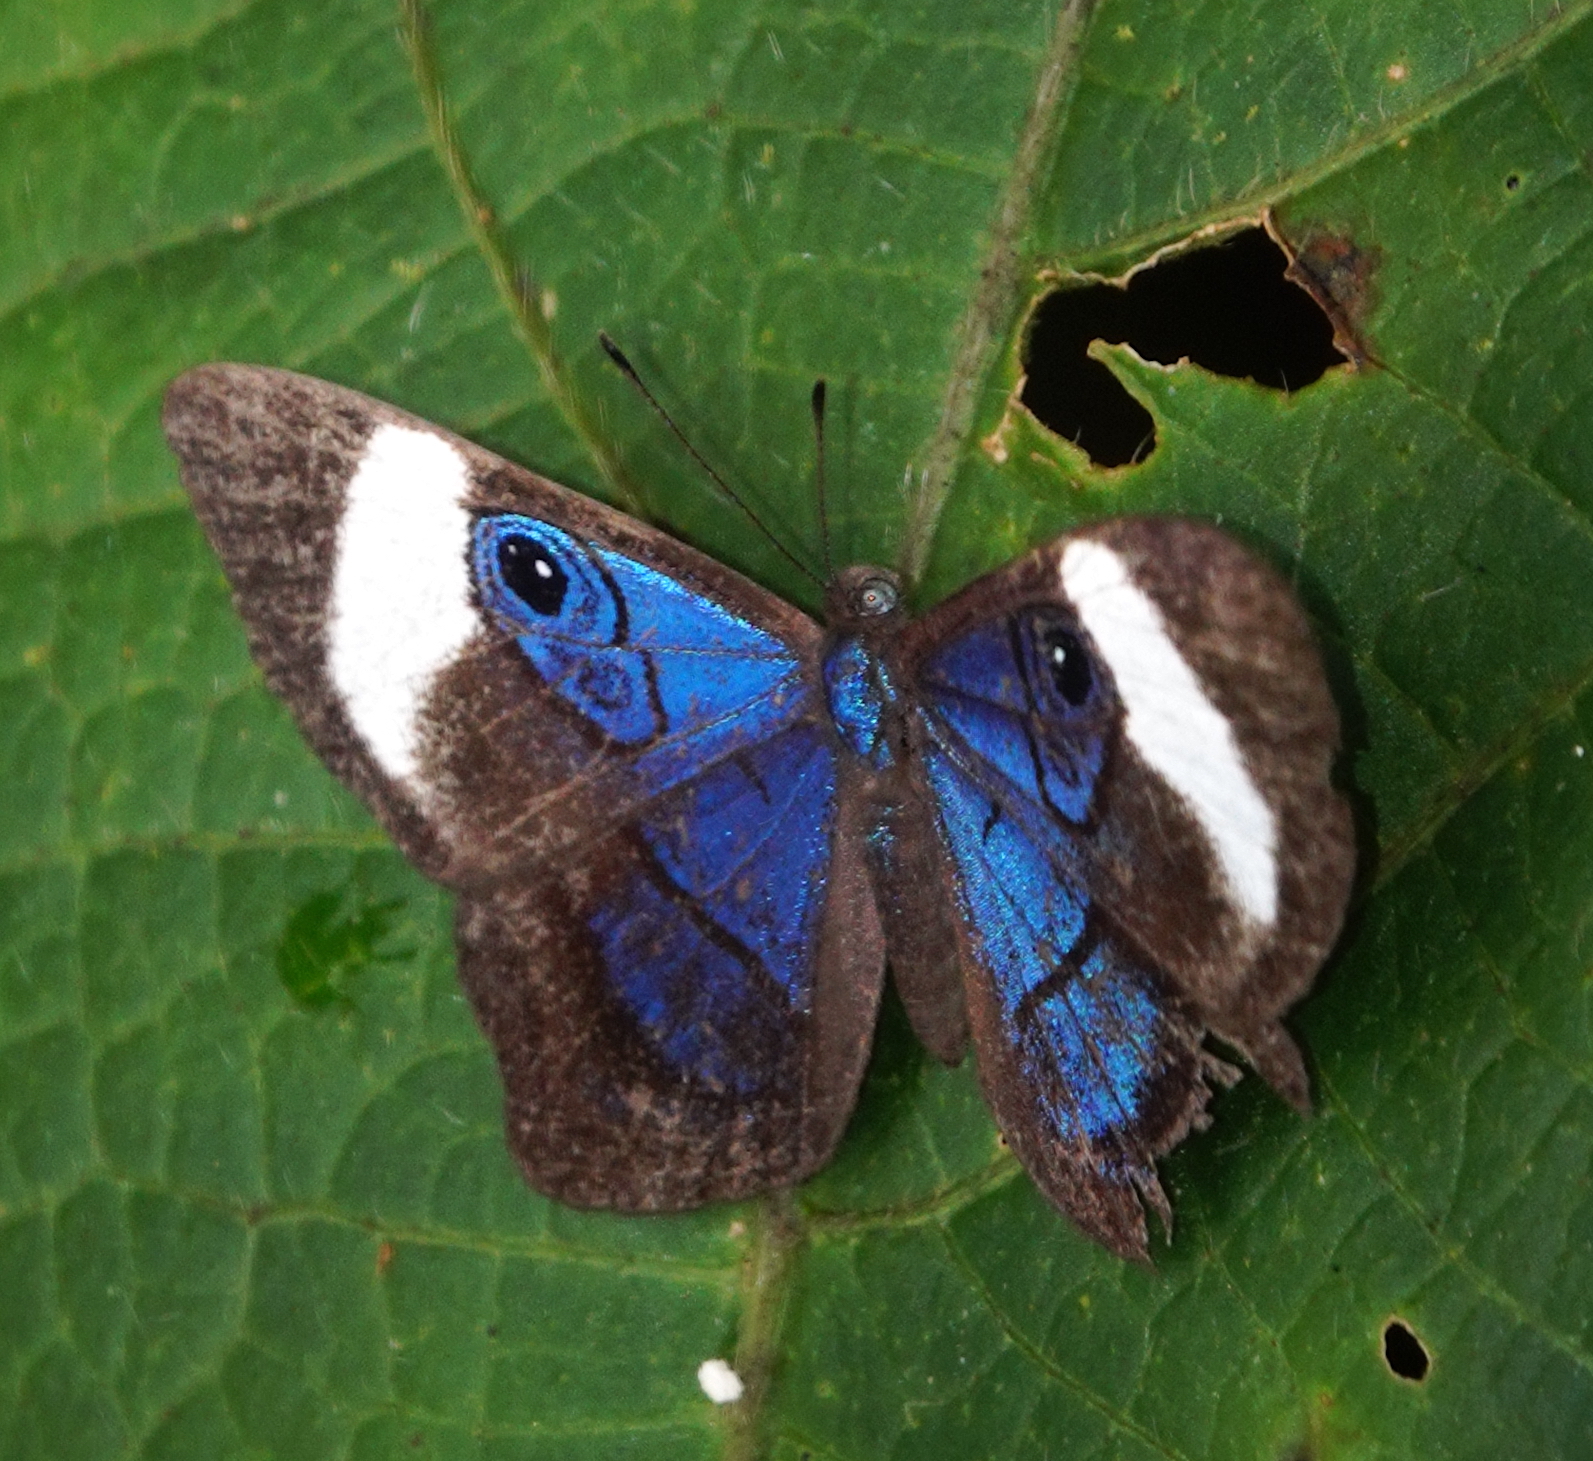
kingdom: Animalia
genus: Mesosemia
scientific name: Mesosemia macrina
